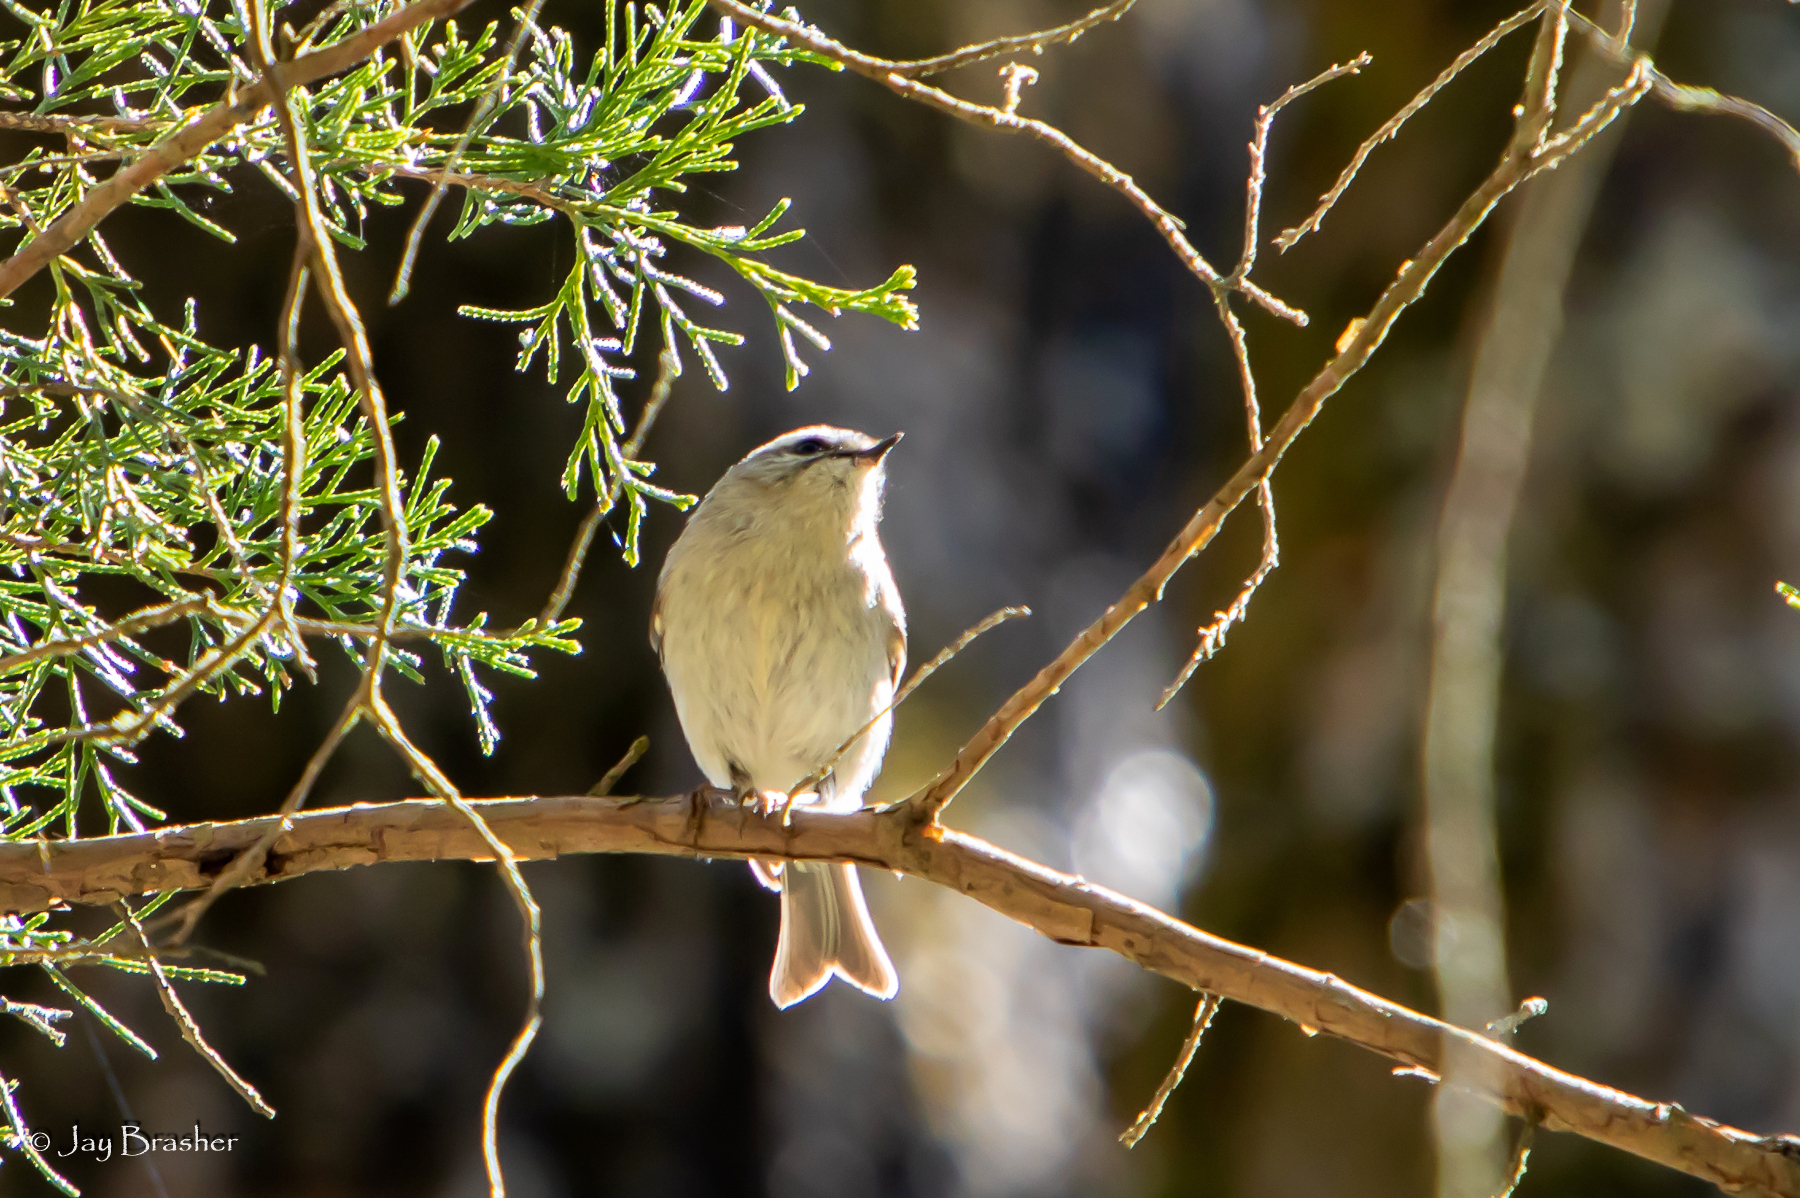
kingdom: Animalia
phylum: Chordata
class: Aves
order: Passeriformes
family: Regulidae
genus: Regulus
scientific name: Regulus satrapa
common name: Golden-crowned kinglet
